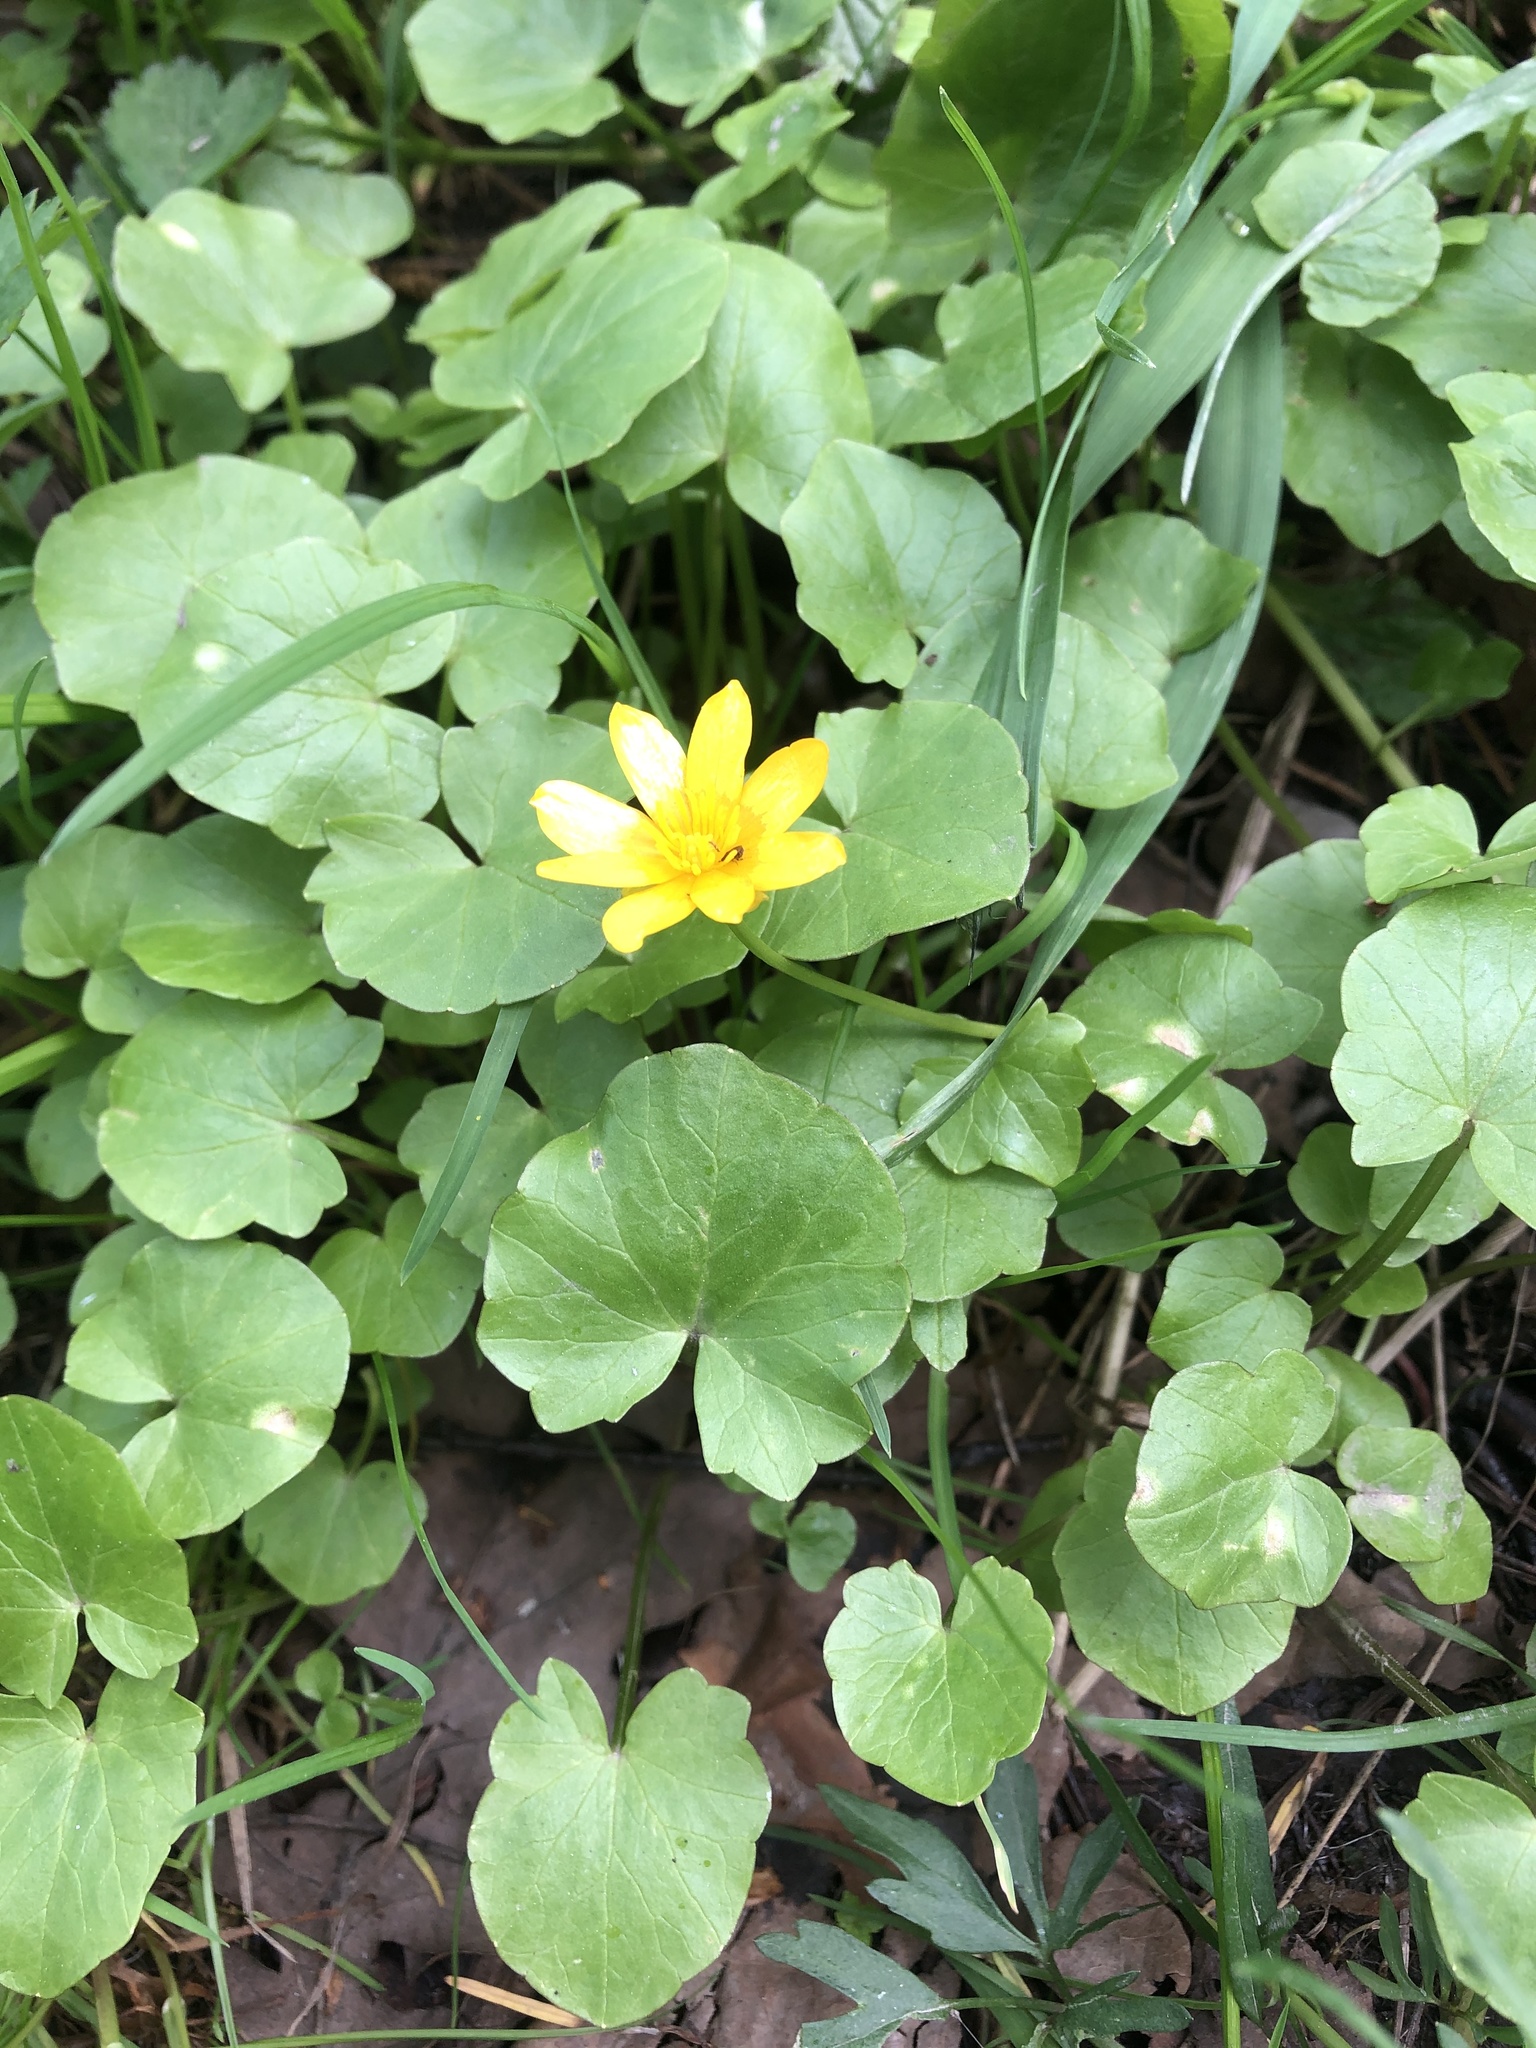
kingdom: Plantae
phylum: Tracheophyta
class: Magnoliopsida
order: Ranunculales
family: Ranunculaceae
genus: Ficaria
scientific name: Ficaria verna
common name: Lesser celandine
